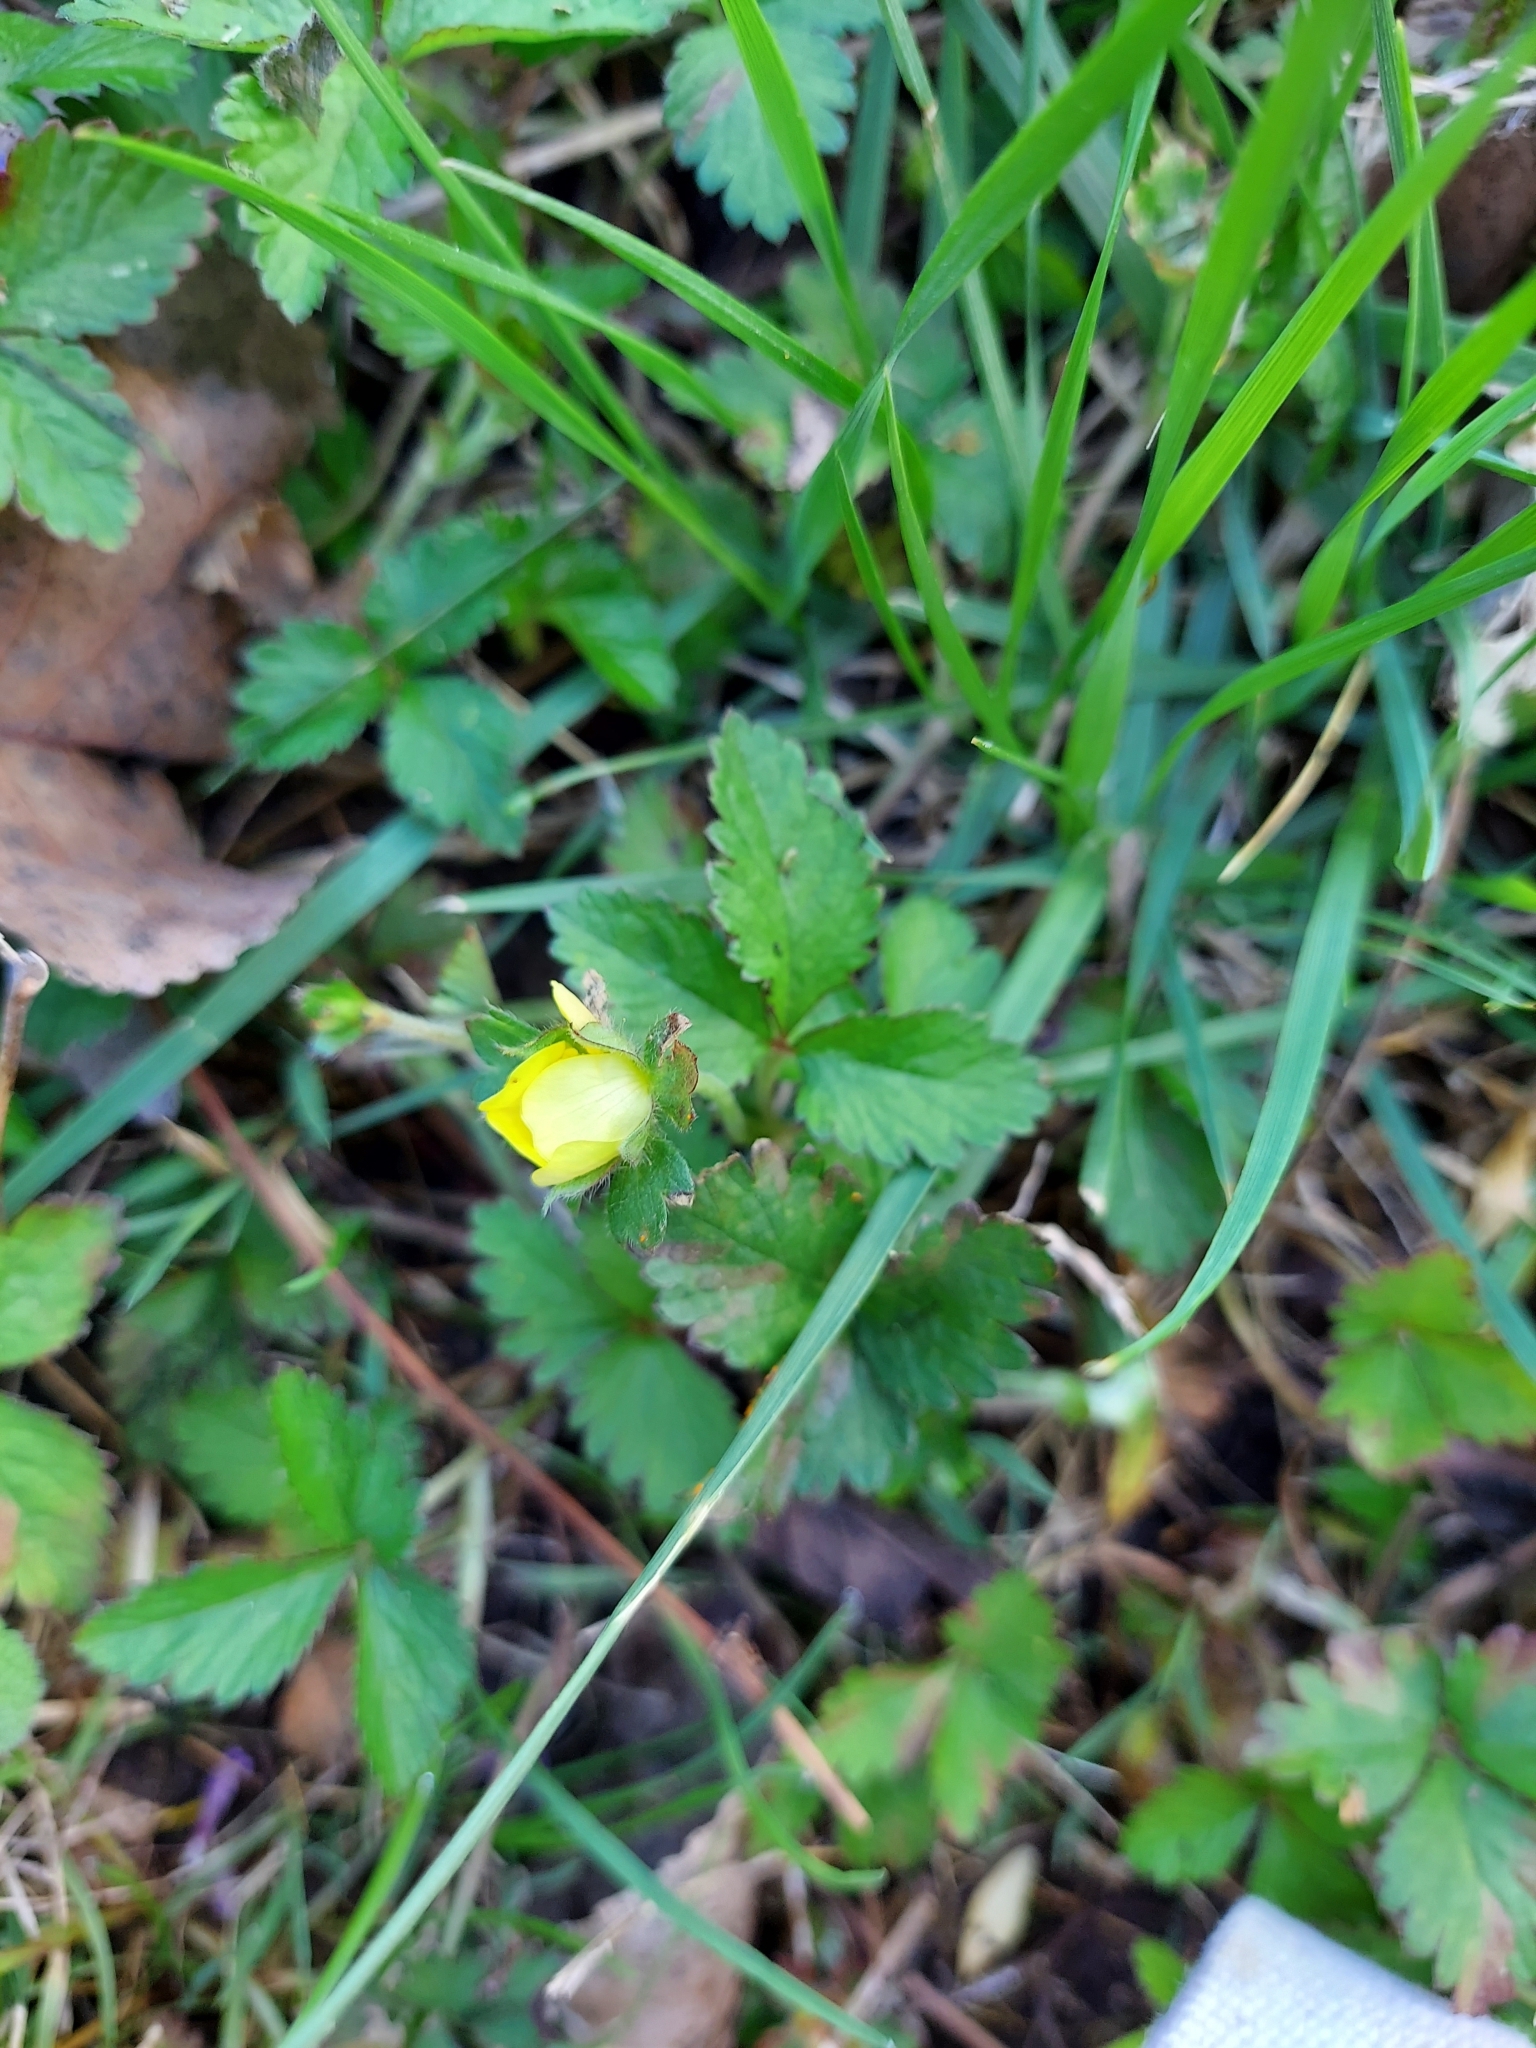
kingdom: Plantae
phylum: Tracheophyta
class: Magnoliopsida
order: Rosales
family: Rosaceae
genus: Potentilla
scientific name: Potentilla indica
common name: Yellow-flowered strawberry
